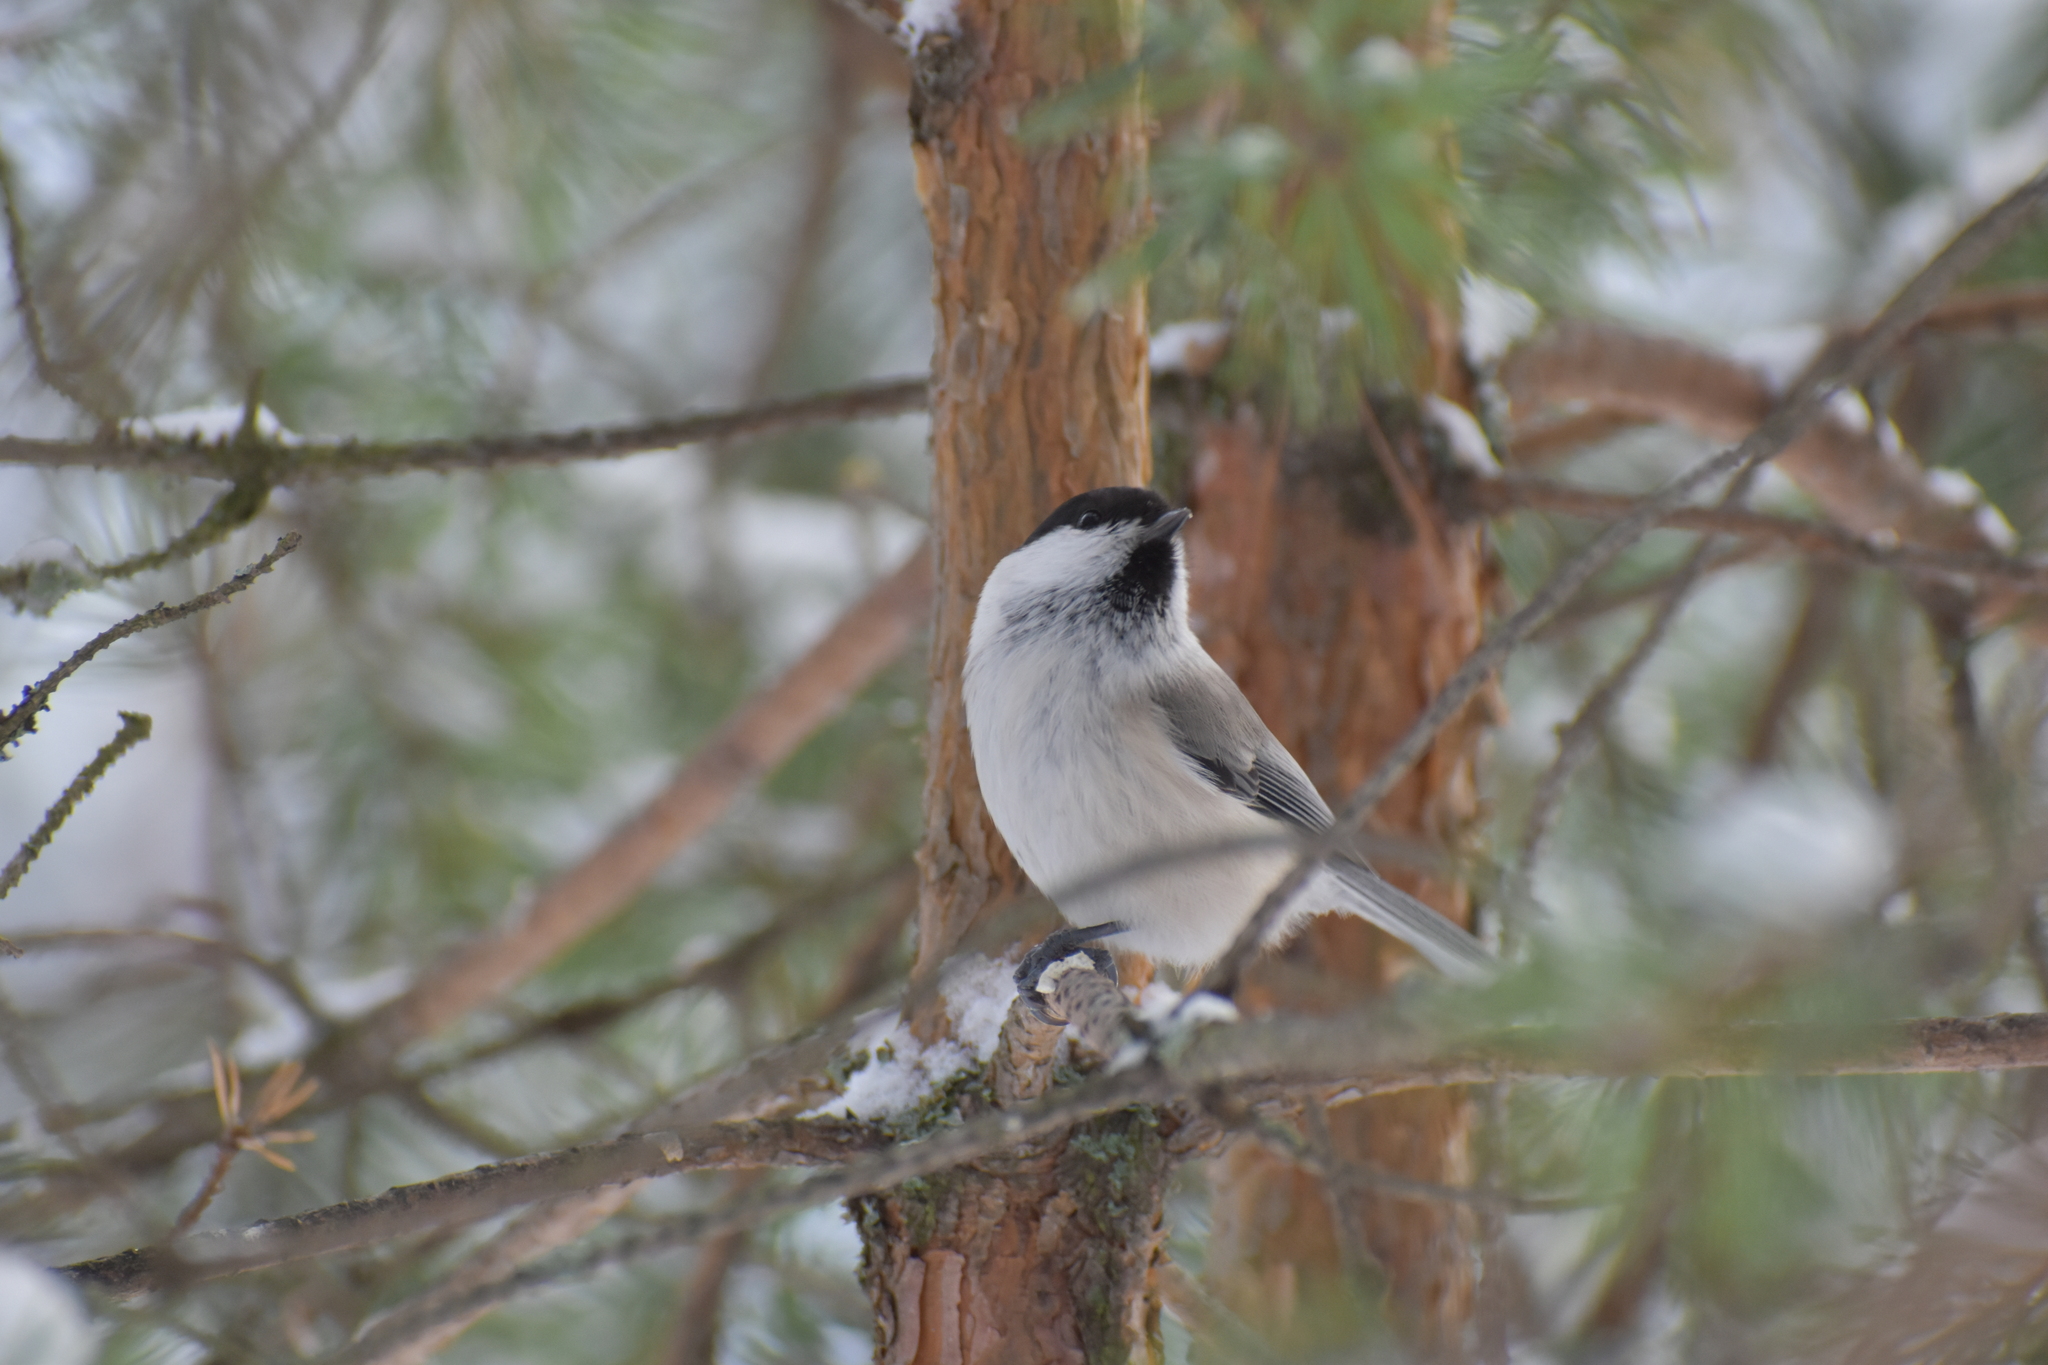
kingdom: Animalia
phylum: Chordata
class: Aves
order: Passeriformes
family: Paridae
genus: Poecile
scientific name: Poecile montanus
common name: Willow tit
